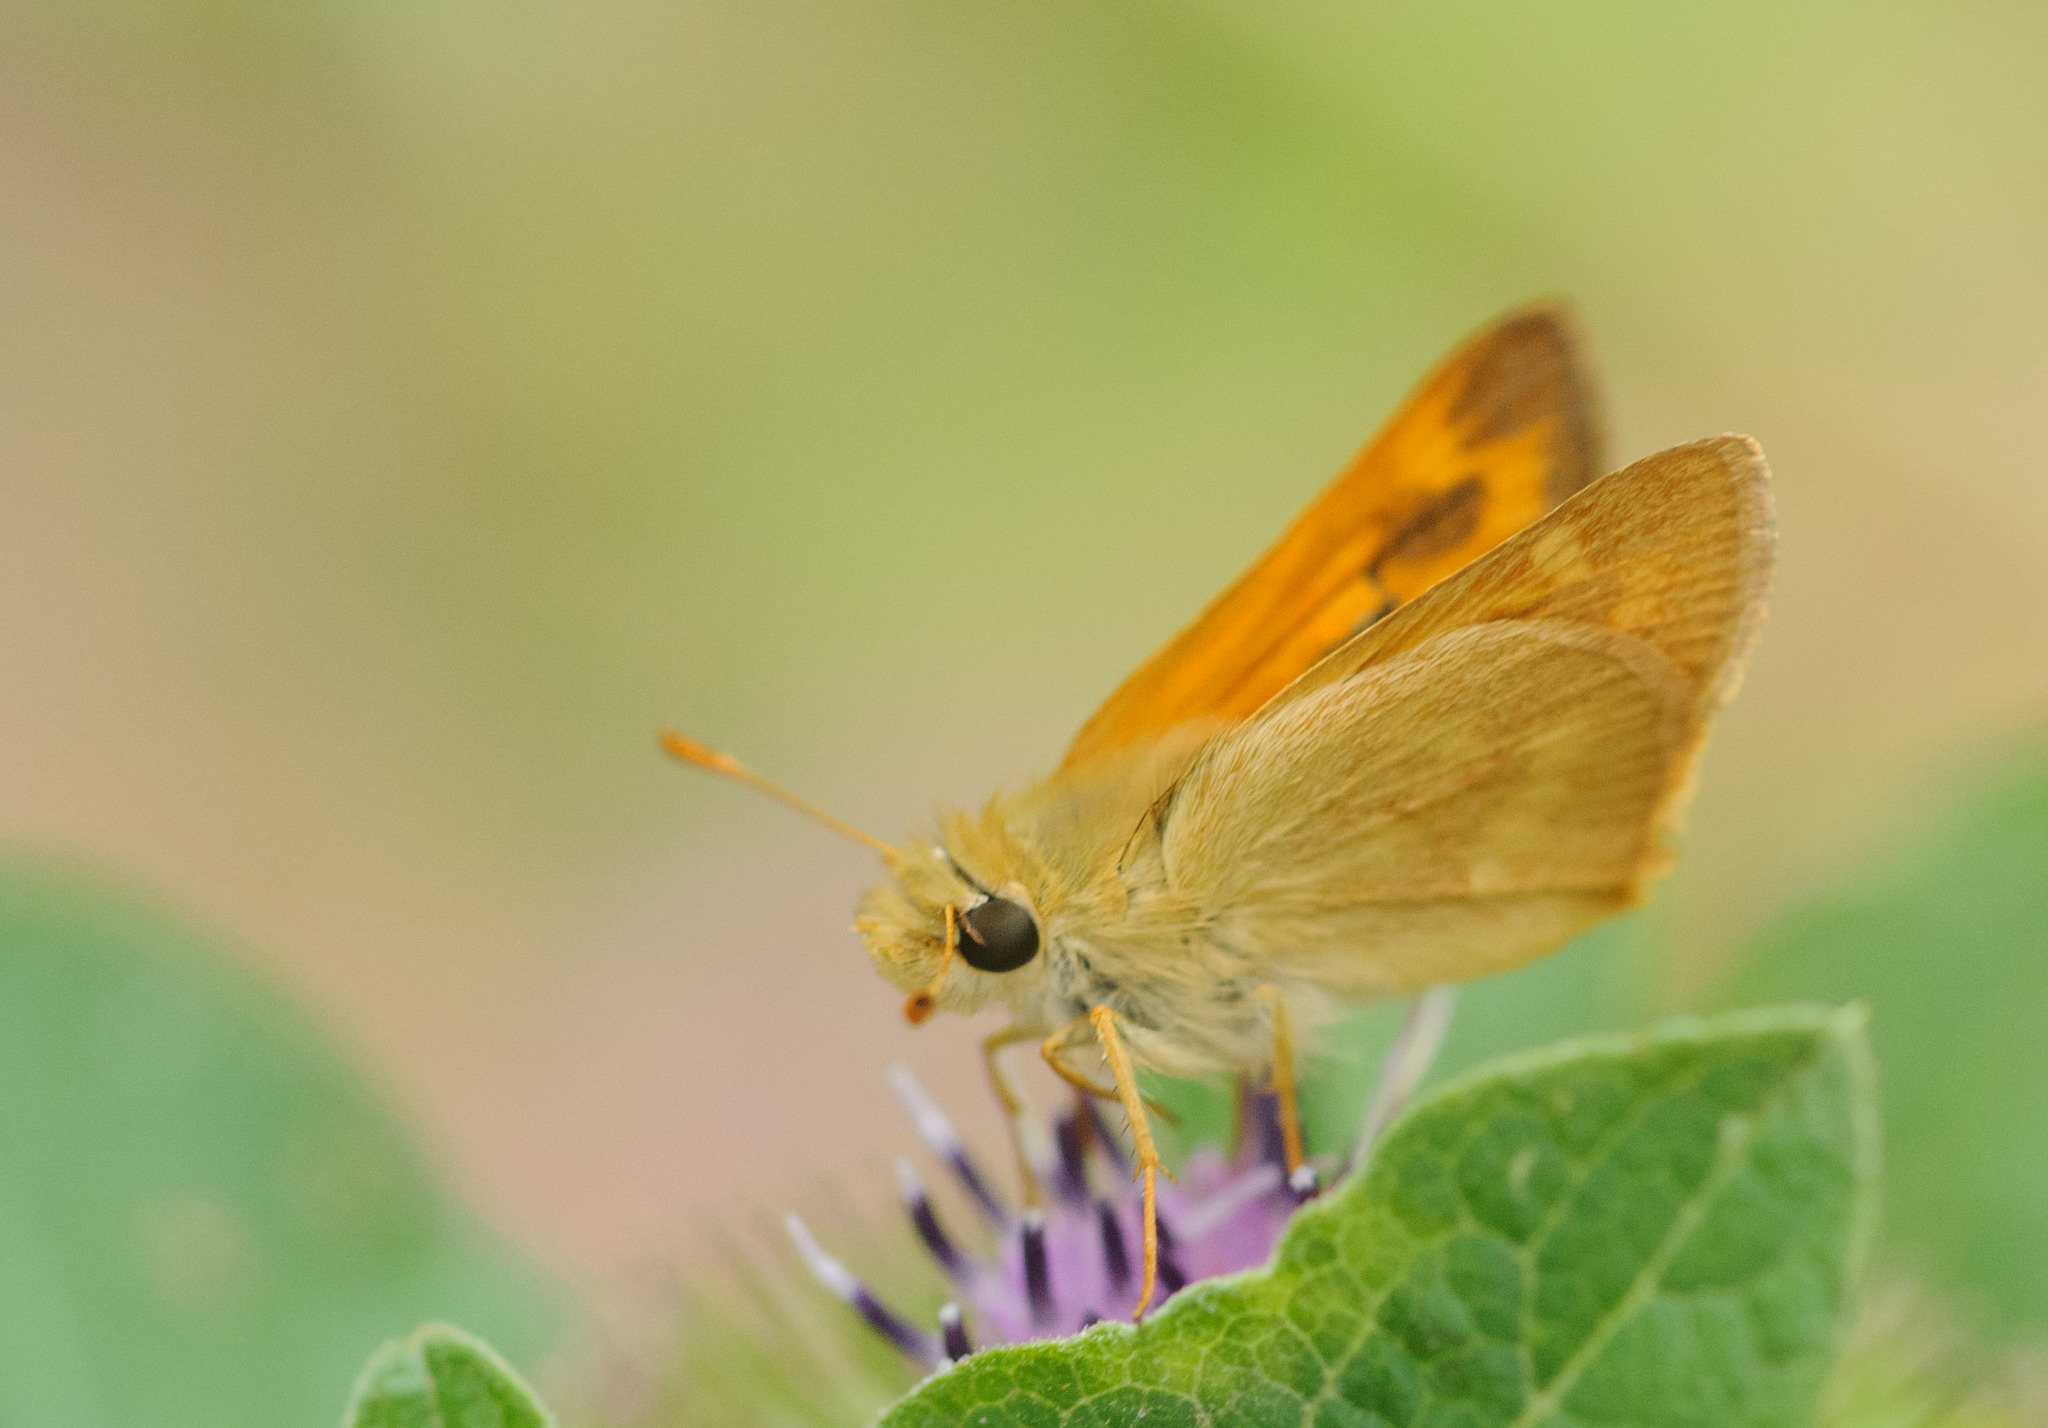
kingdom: Animalia
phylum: Arthropoda
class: Insecta
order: Lepidoptera
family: Hesperiidae
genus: Ochlodes
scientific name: Ochlodes sylvanoides
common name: Woodland skipper
